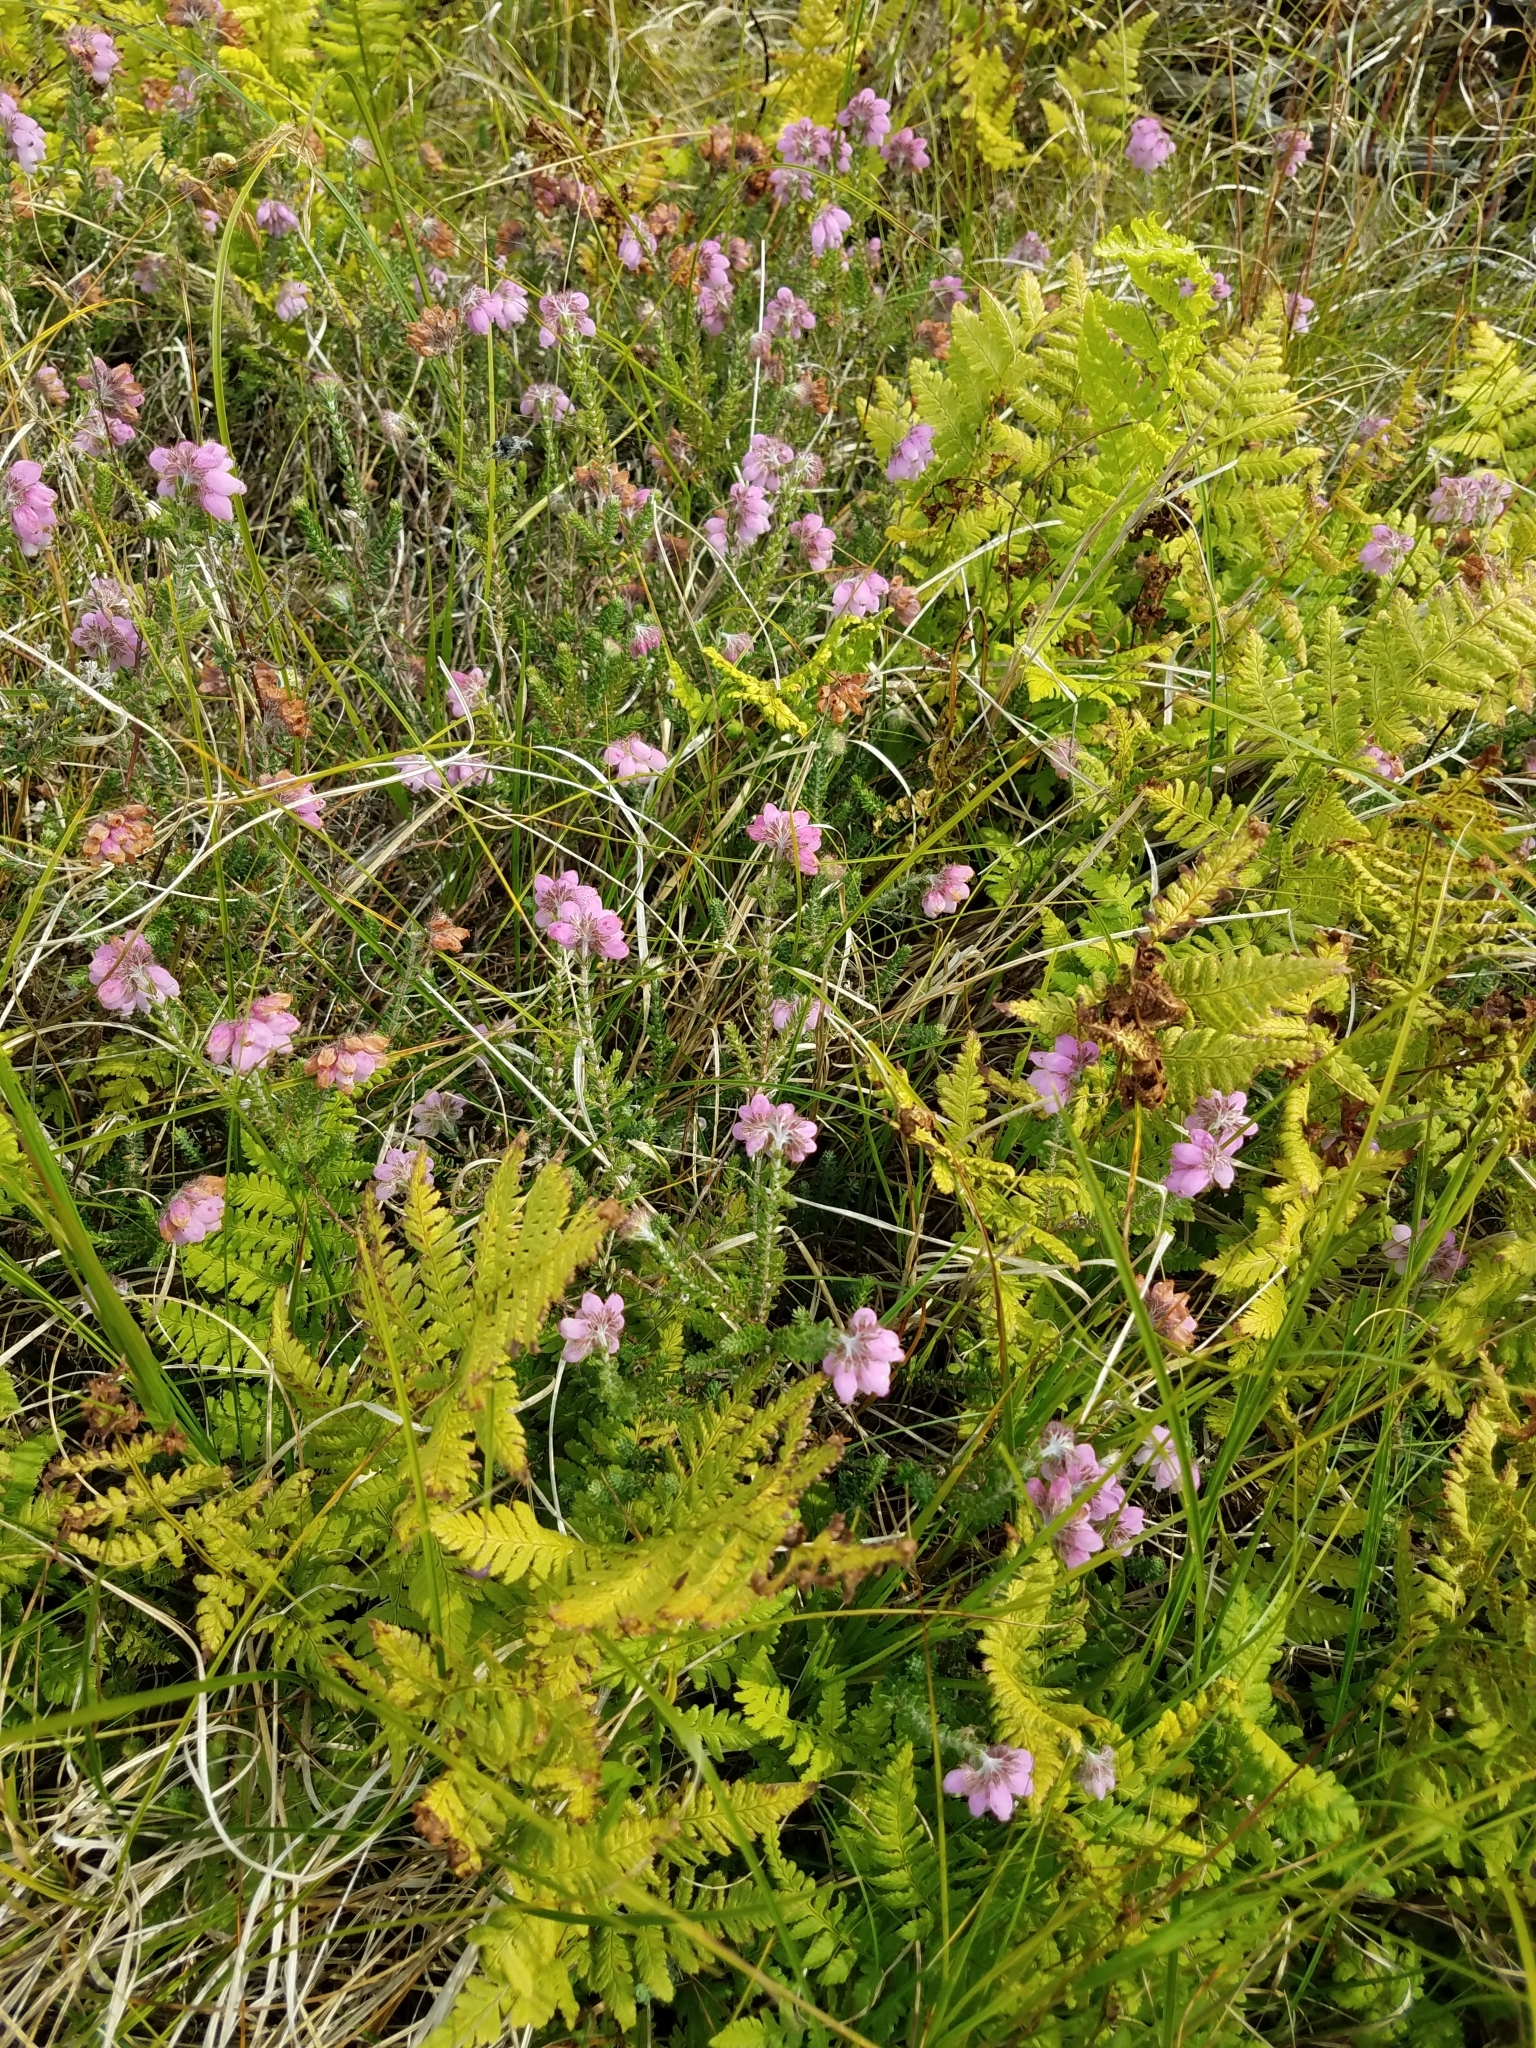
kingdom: Plantae
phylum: Tracheophyta
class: Magnoliopsida
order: Ericales
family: Ericaceae
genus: Erica
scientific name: Erica tetralix
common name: Cross-leaved heath
